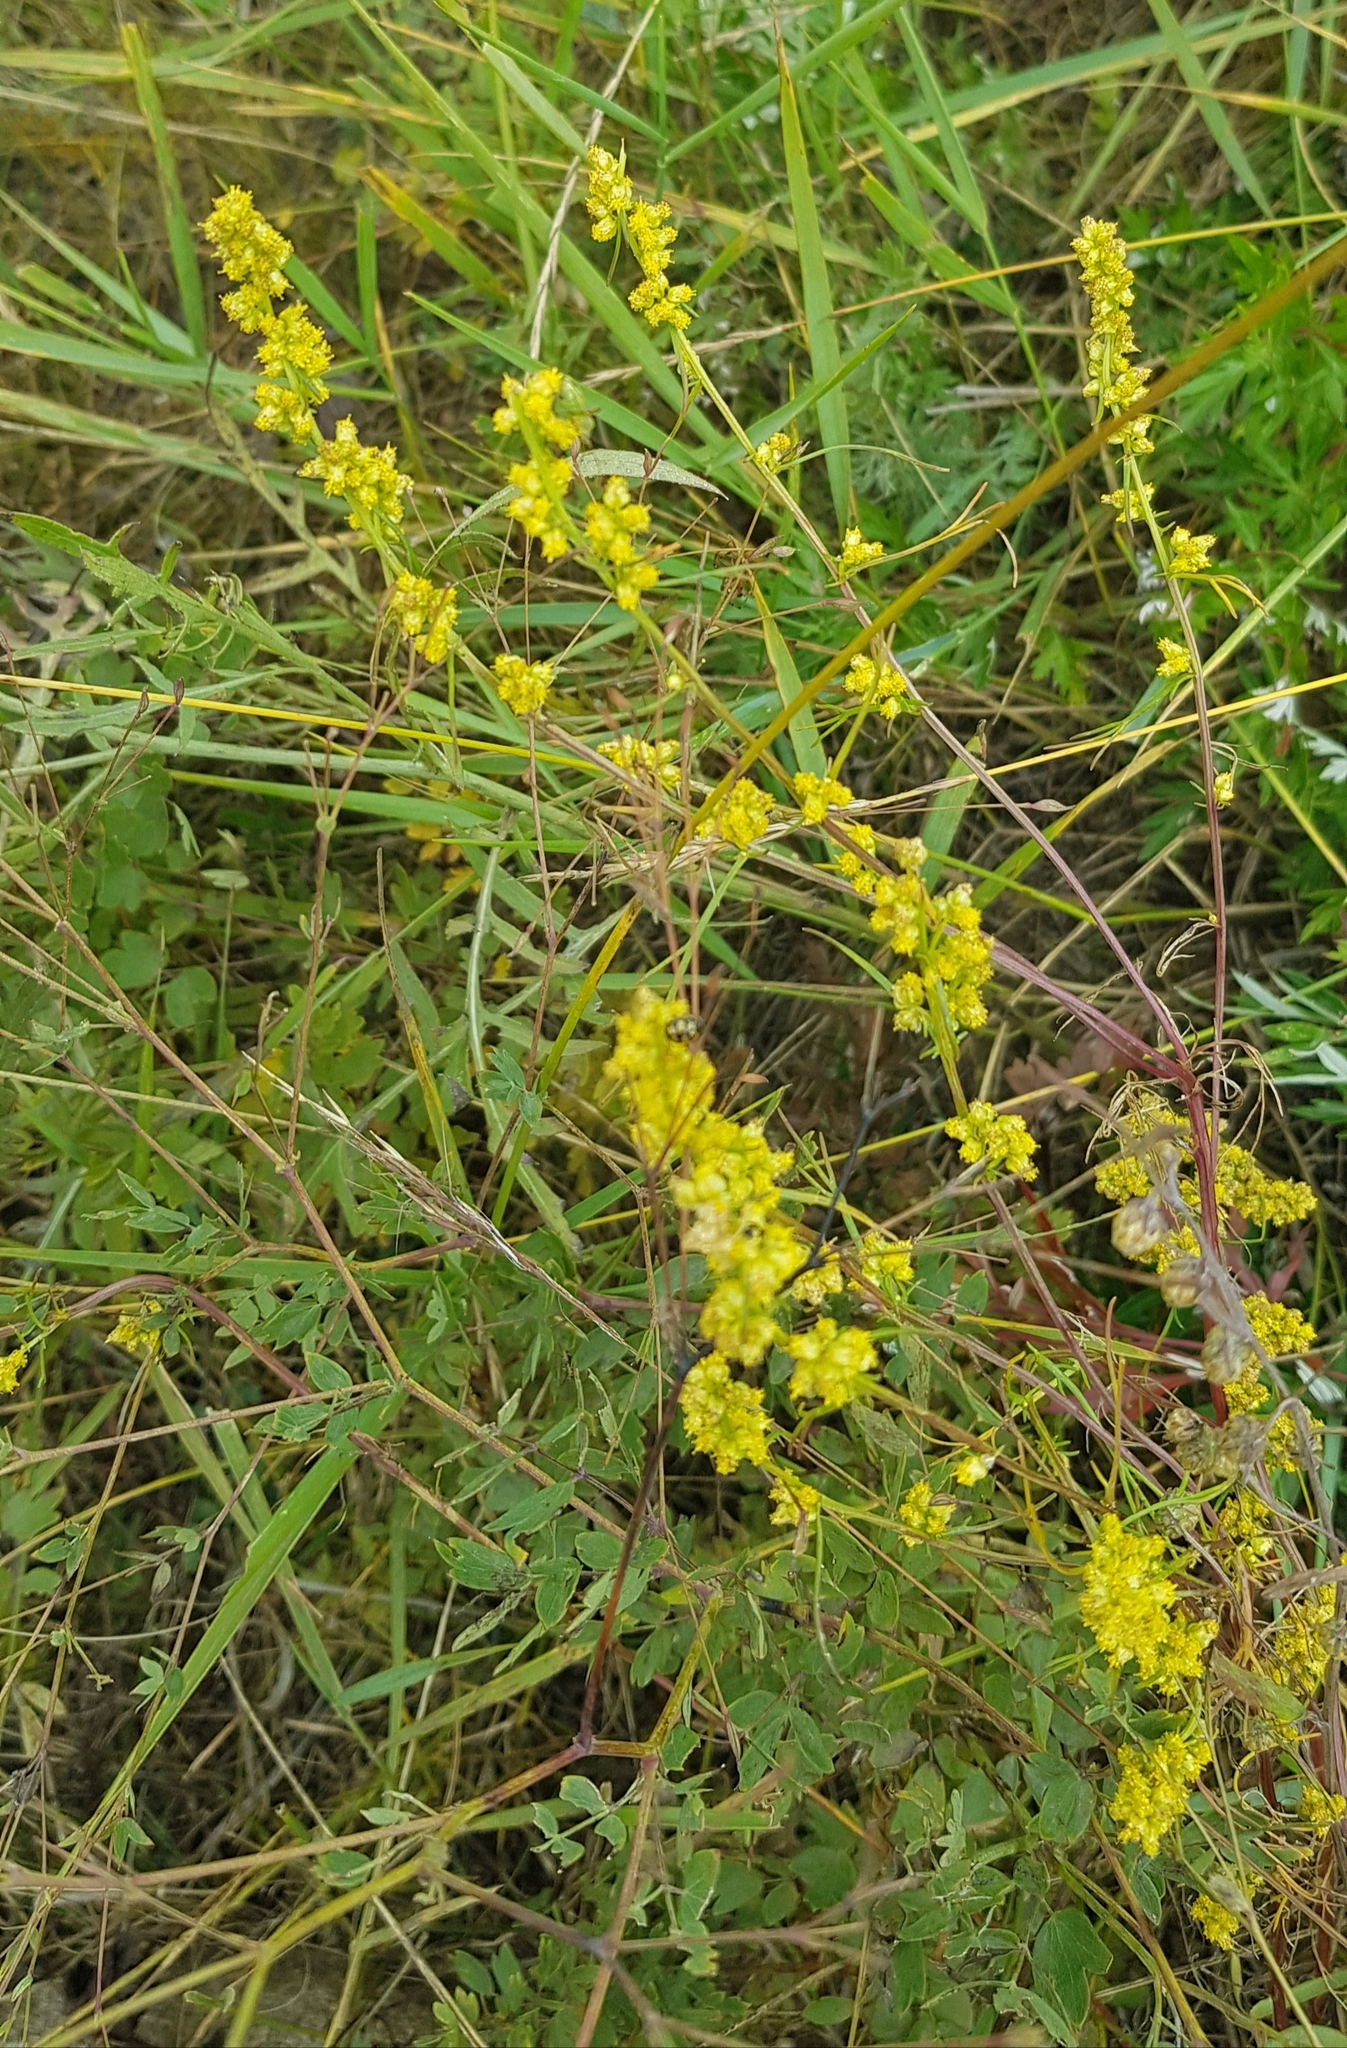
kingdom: Plantae
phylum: Tracheophyta
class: Magnoliopsida
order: Asterales
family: Asteraceae
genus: Artemisia
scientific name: Artemisia palustris
